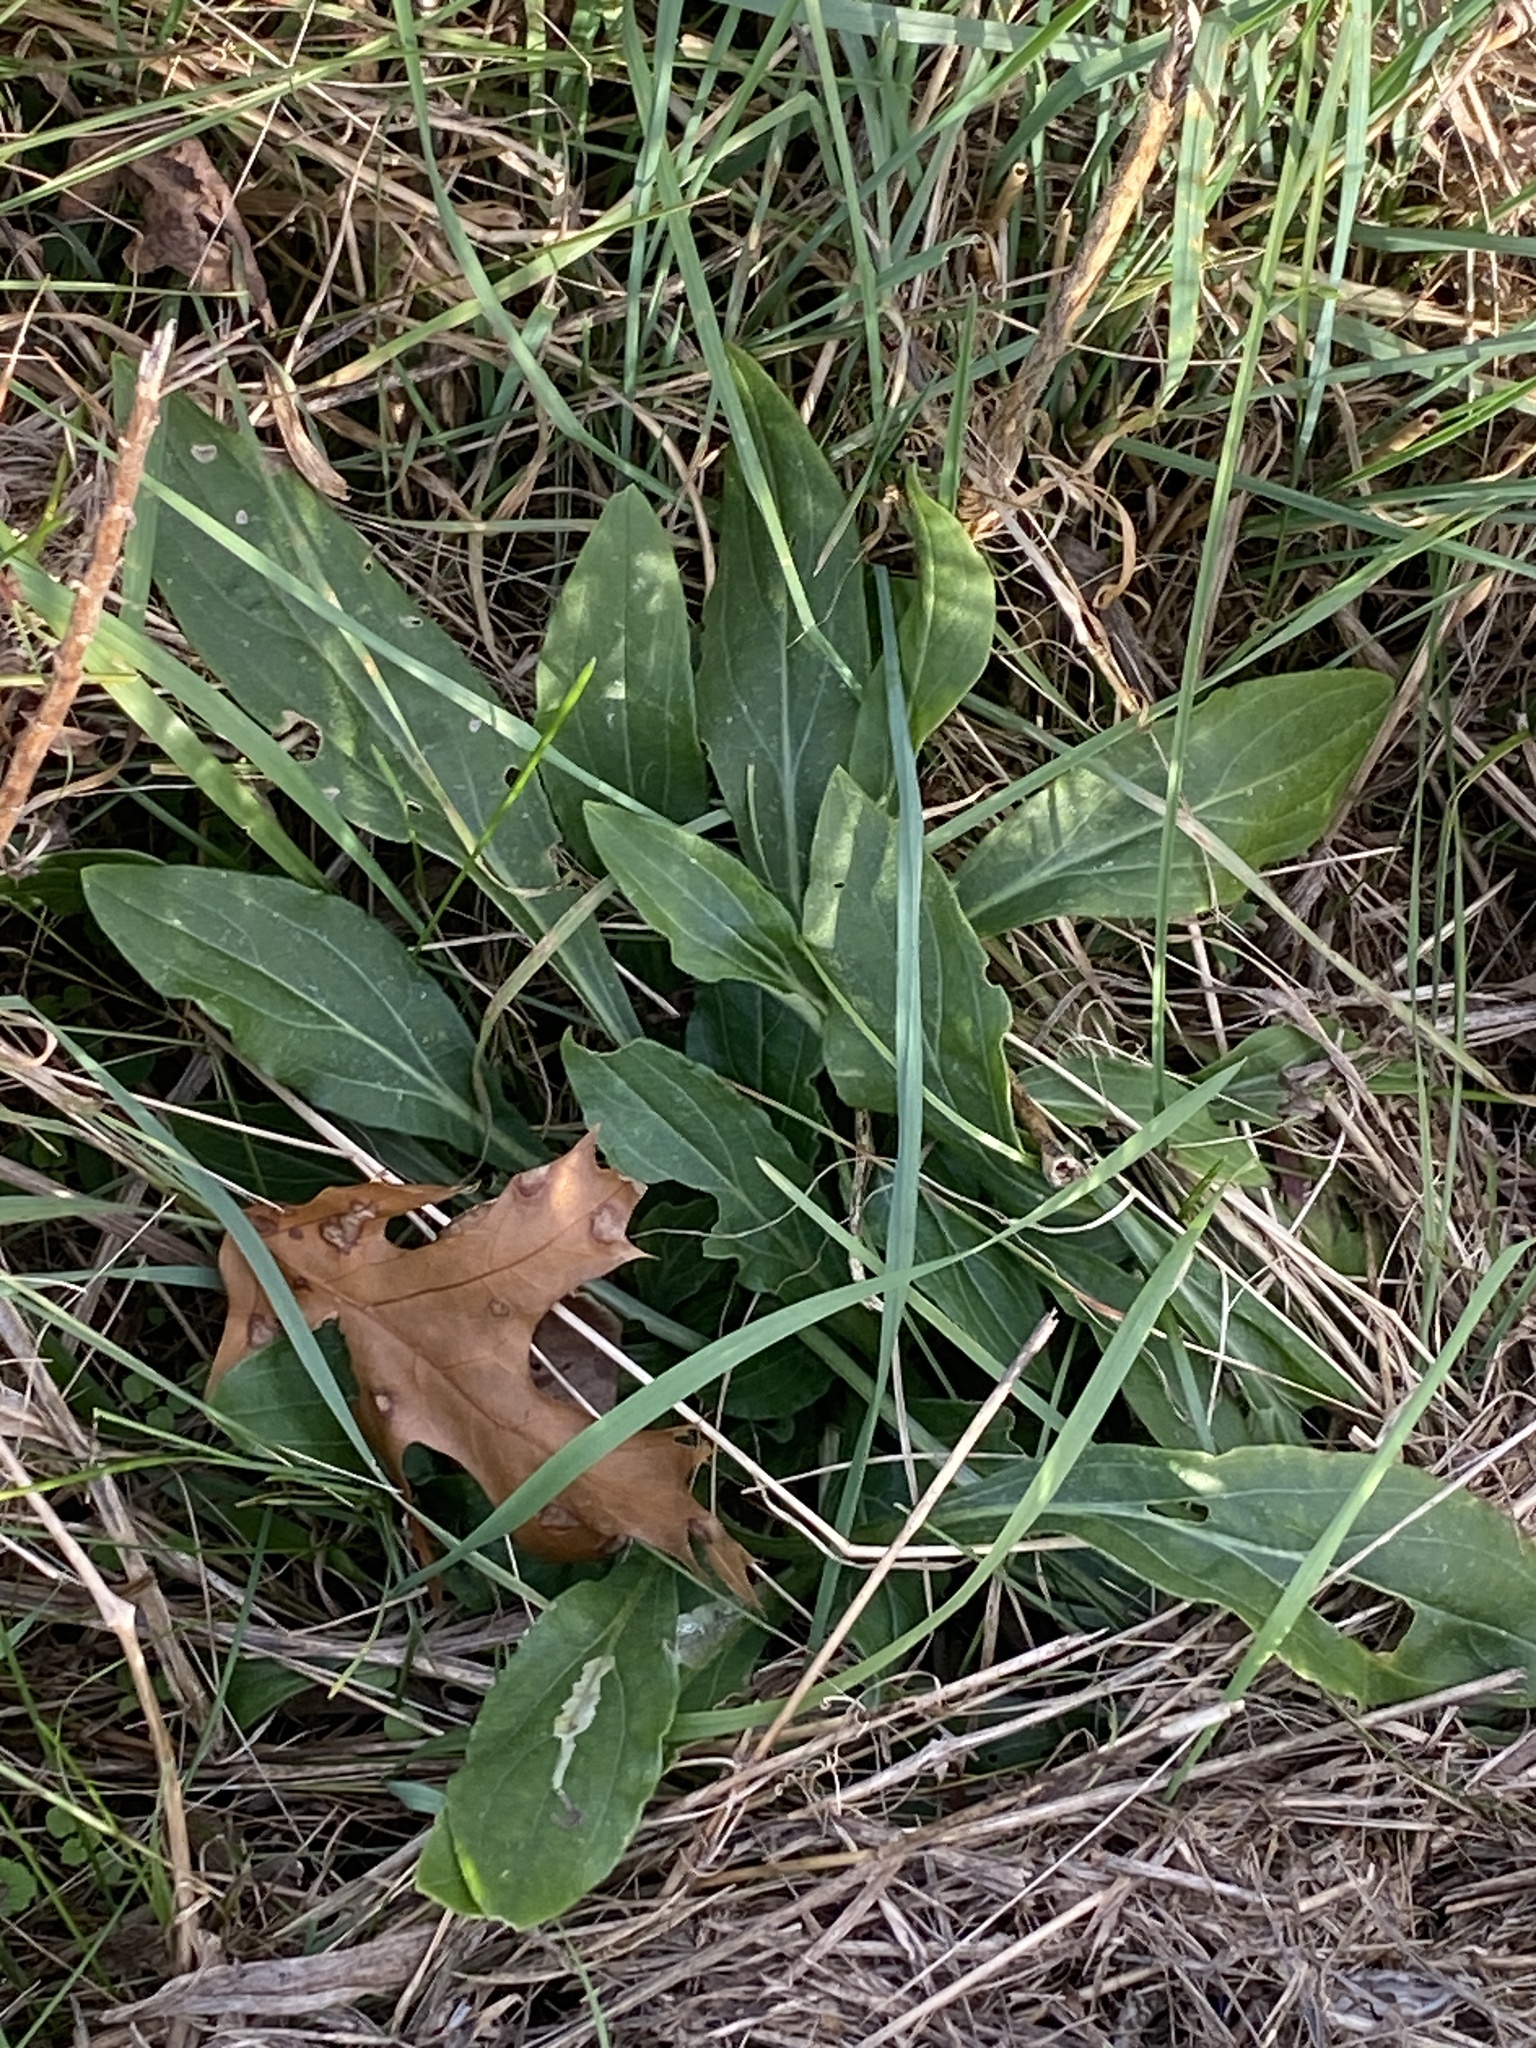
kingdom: Plantae
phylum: Tracheophyta
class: Magnoliopsida
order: Caryophyllales
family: Caryophyllaceae
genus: Silene
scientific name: Silene latifolia
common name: White campion
